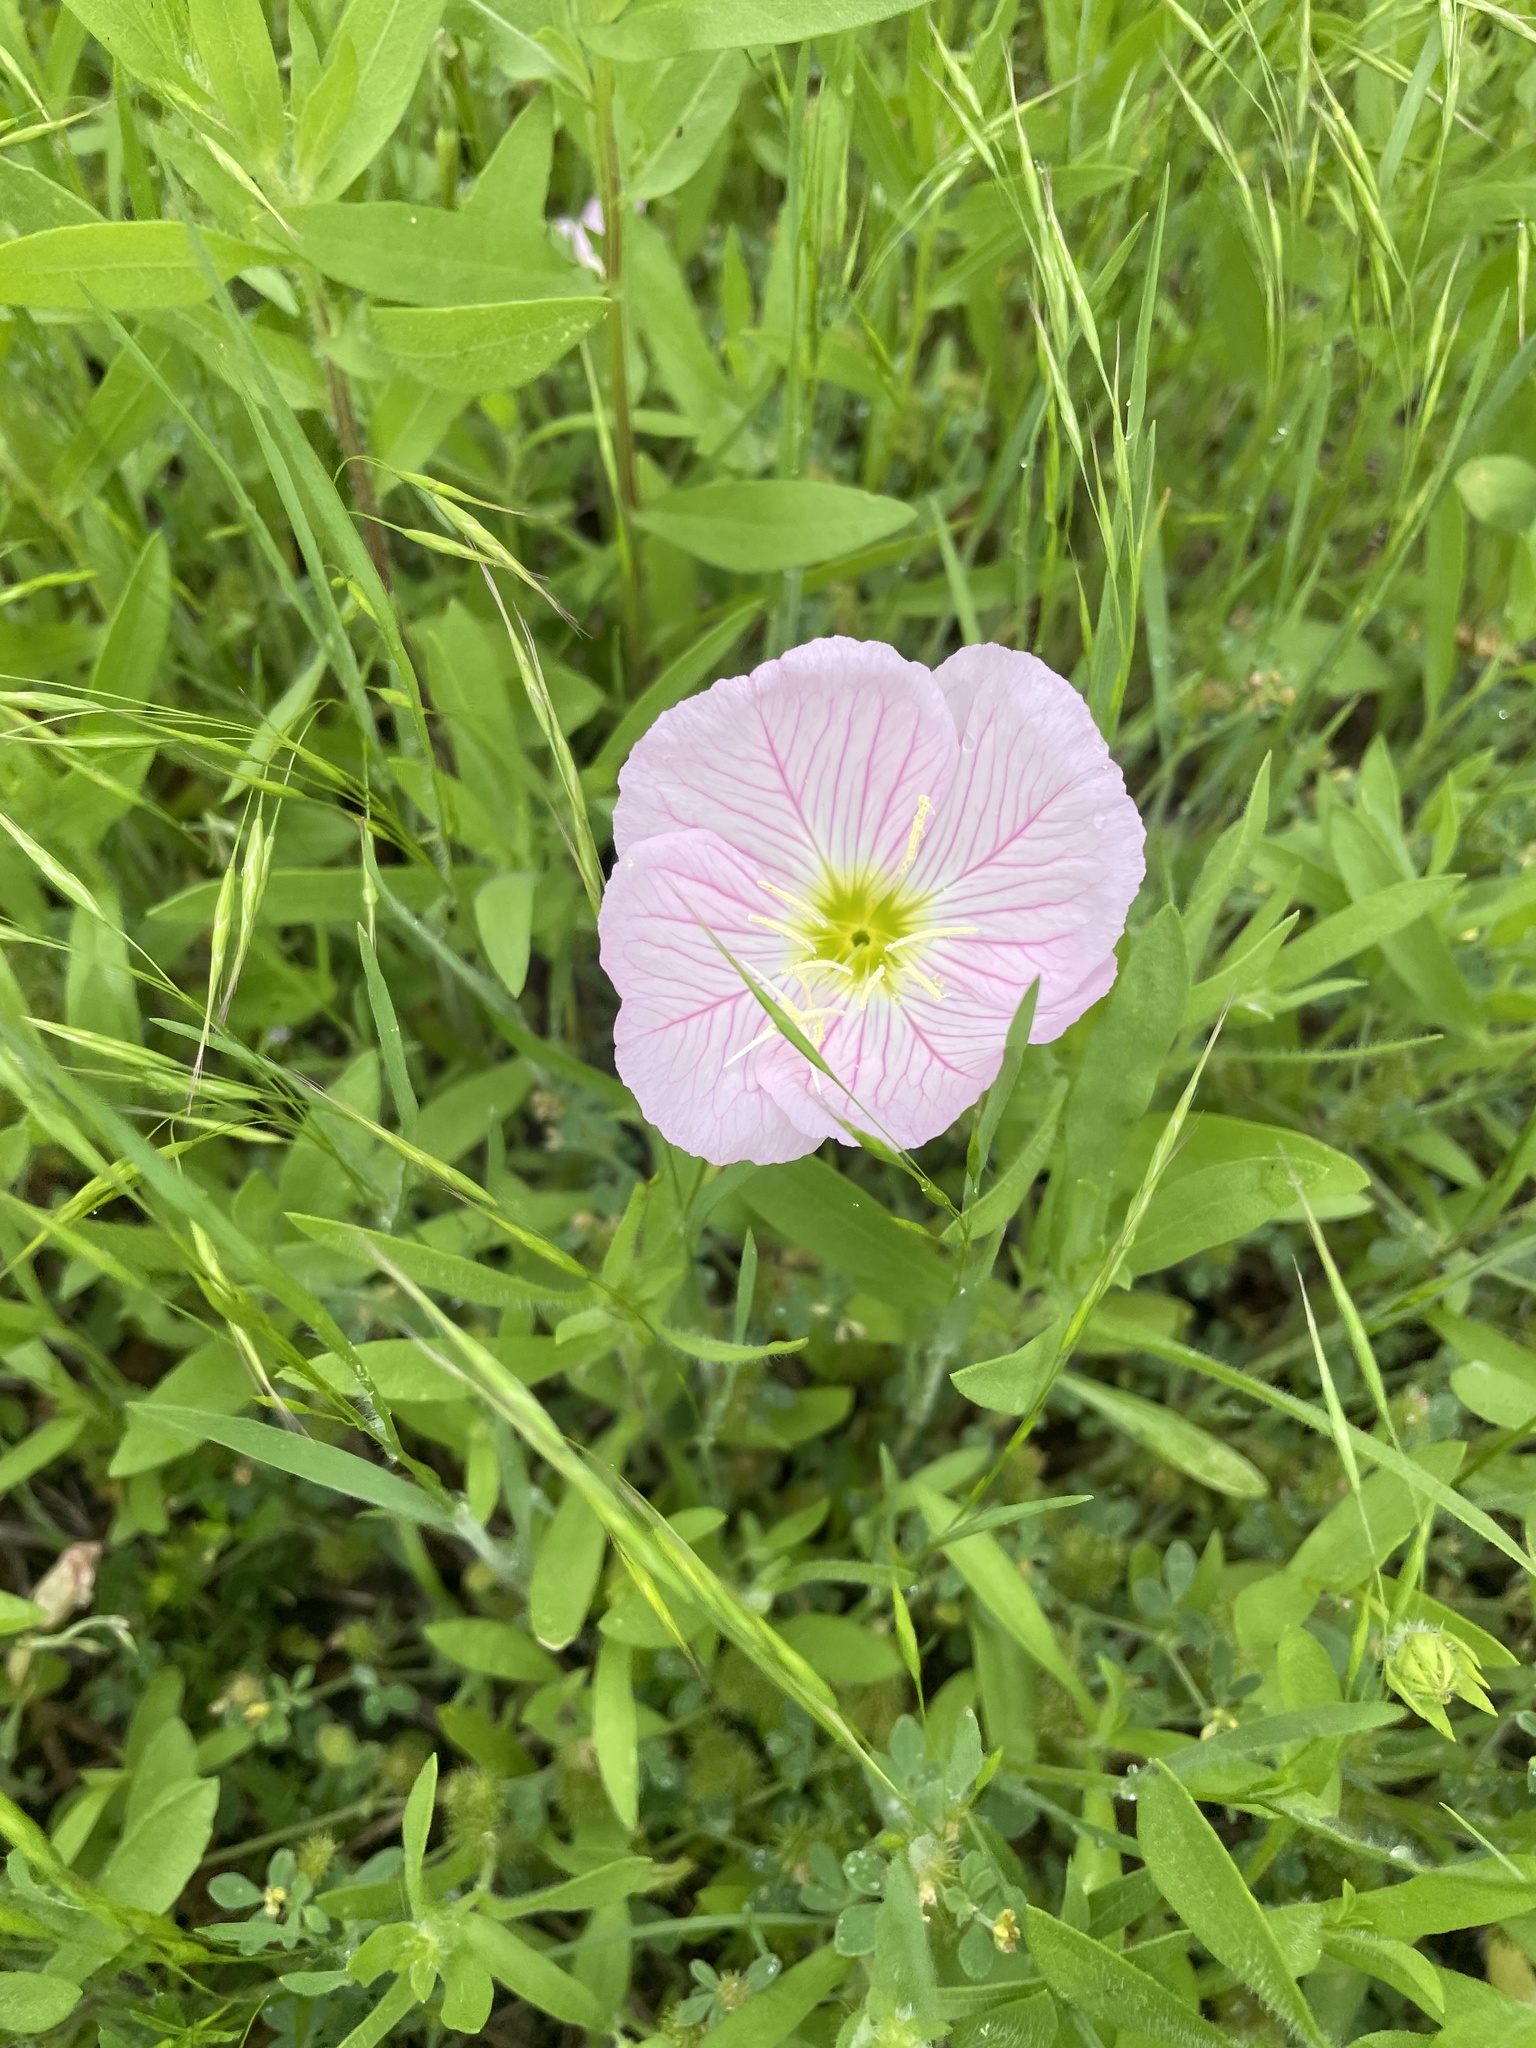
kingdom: Plantae
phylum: Tracheophyta
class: Magnoliopsida
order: Myrtales
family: Onagraceae
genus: Oenothera
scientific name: Oenothera speciosa
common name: White evening-primrose
